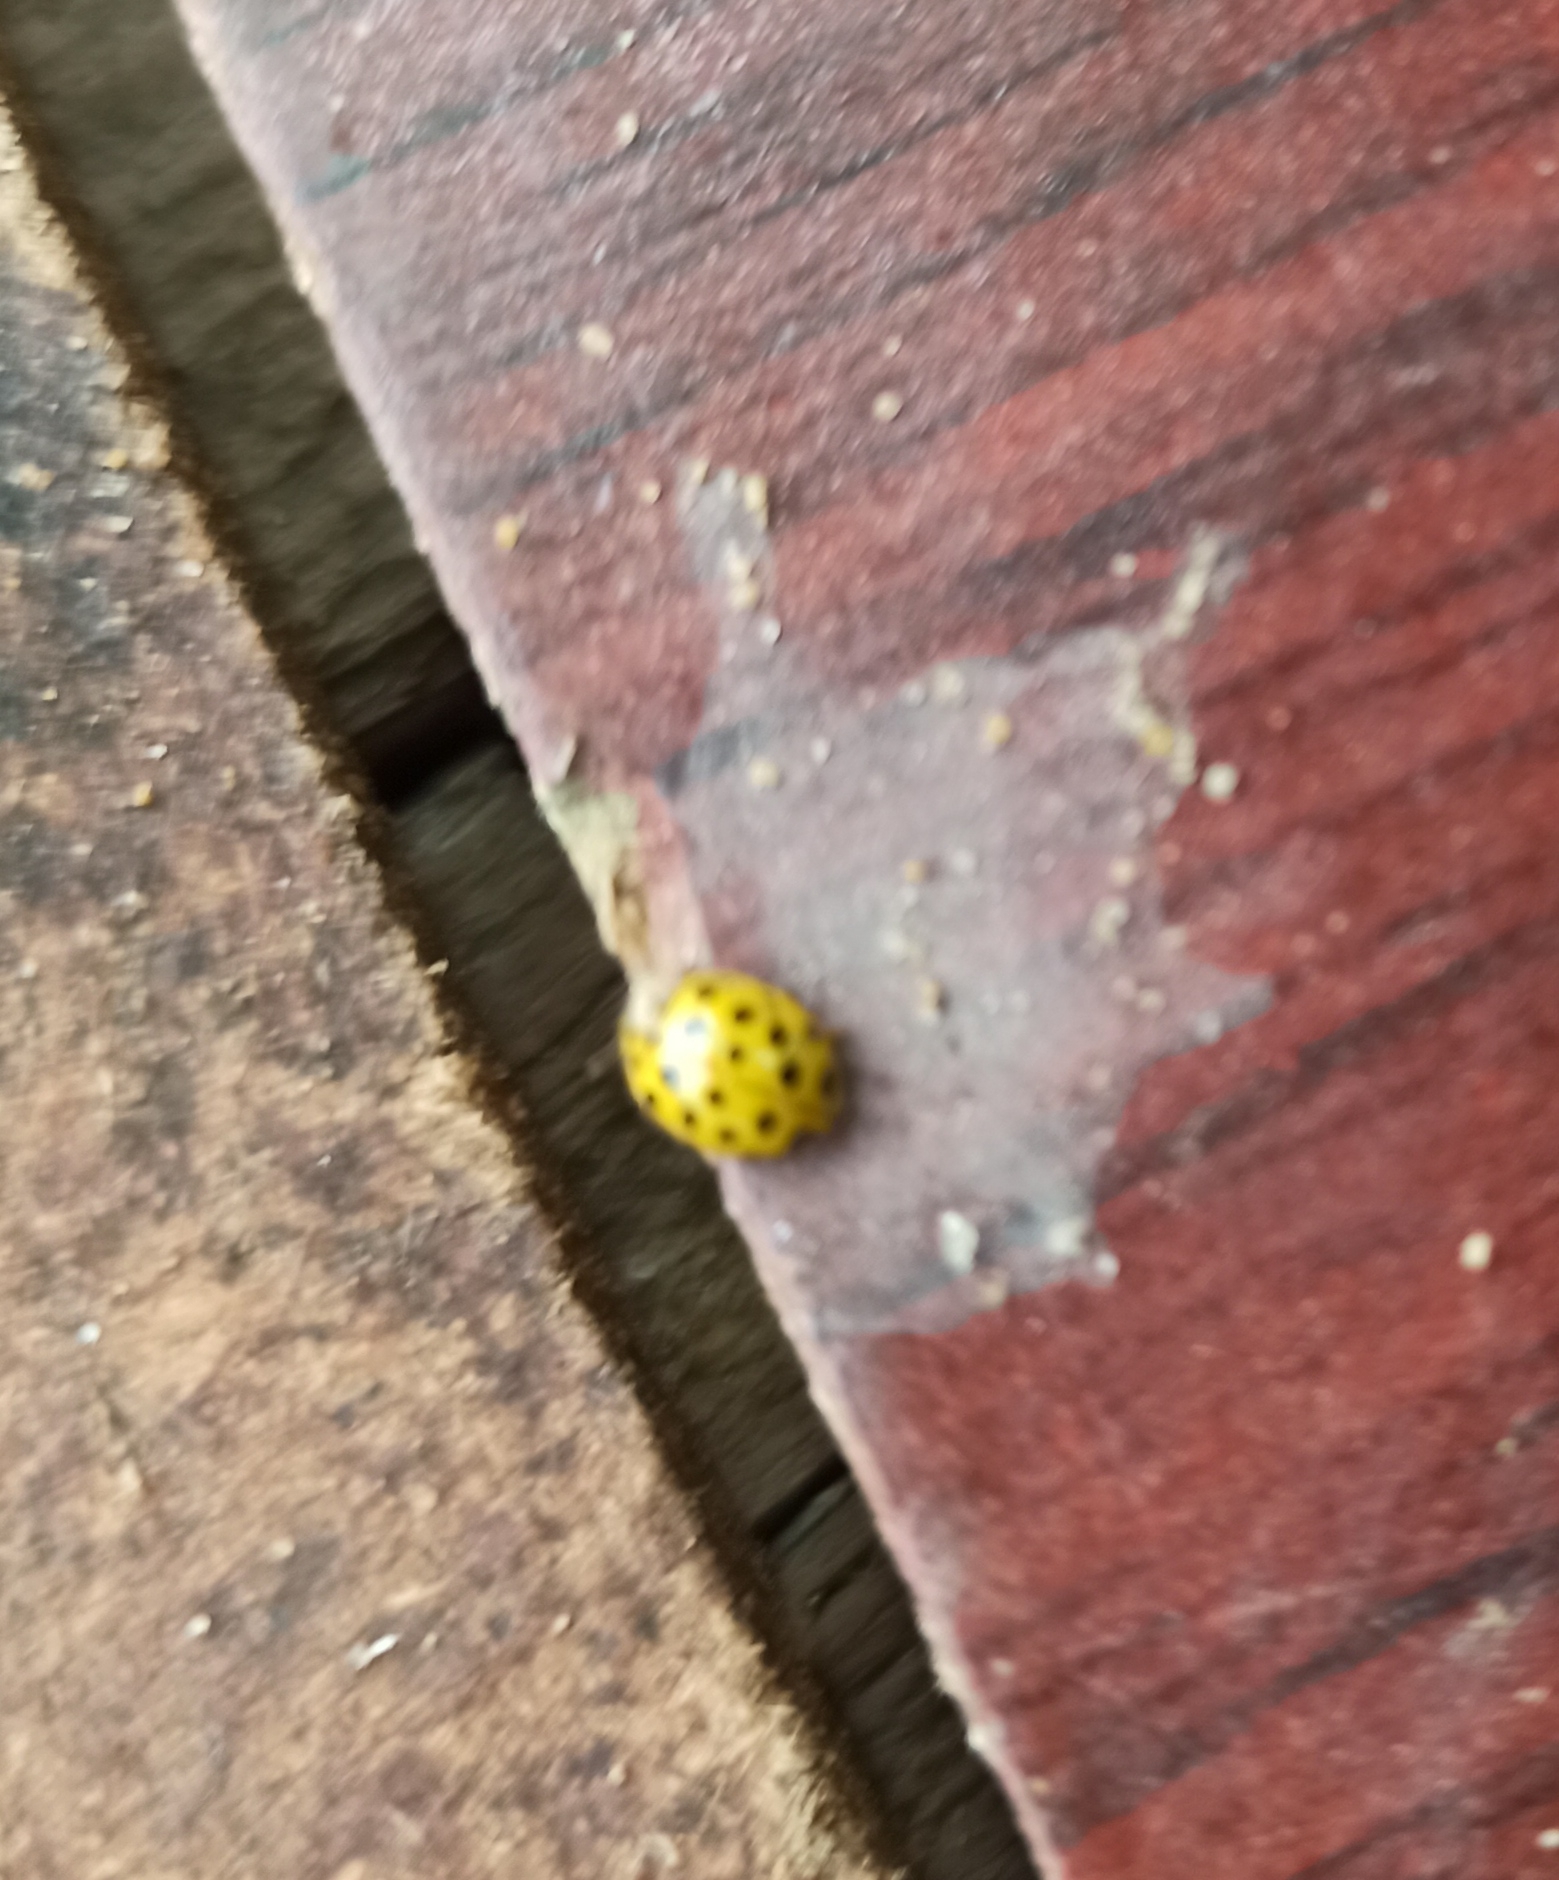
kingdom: Animalia
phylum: Arthropoda
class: Insecta
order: Coleoptera
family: Coccinellidae
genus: Psyllobora
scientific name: Psyllobora vigintiduopunctata
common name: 22-spot ladybird
